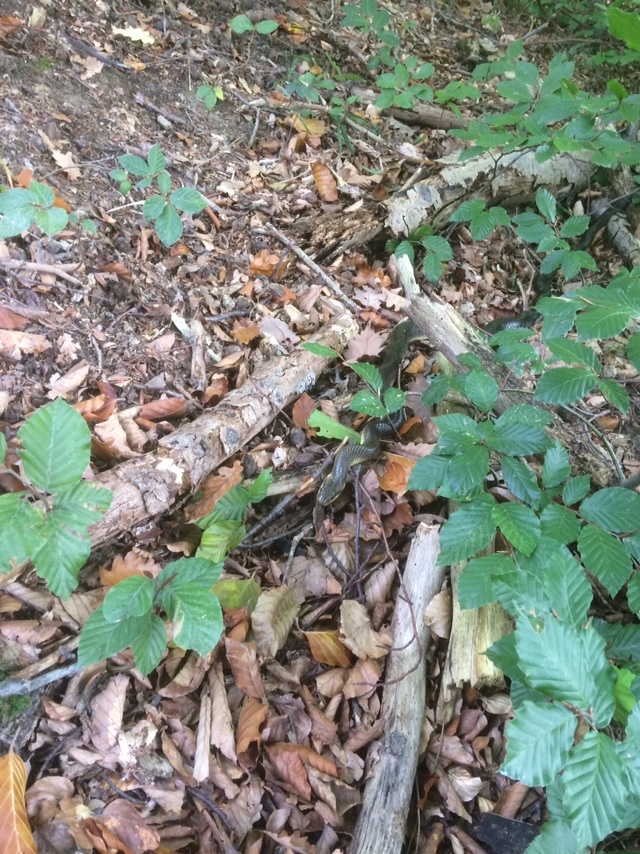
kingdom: Animalia
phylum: Chordata
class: Squamata
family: Colubridae
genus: Zamenis
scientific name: Zamenis longissimus
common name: Aesculapean snake
